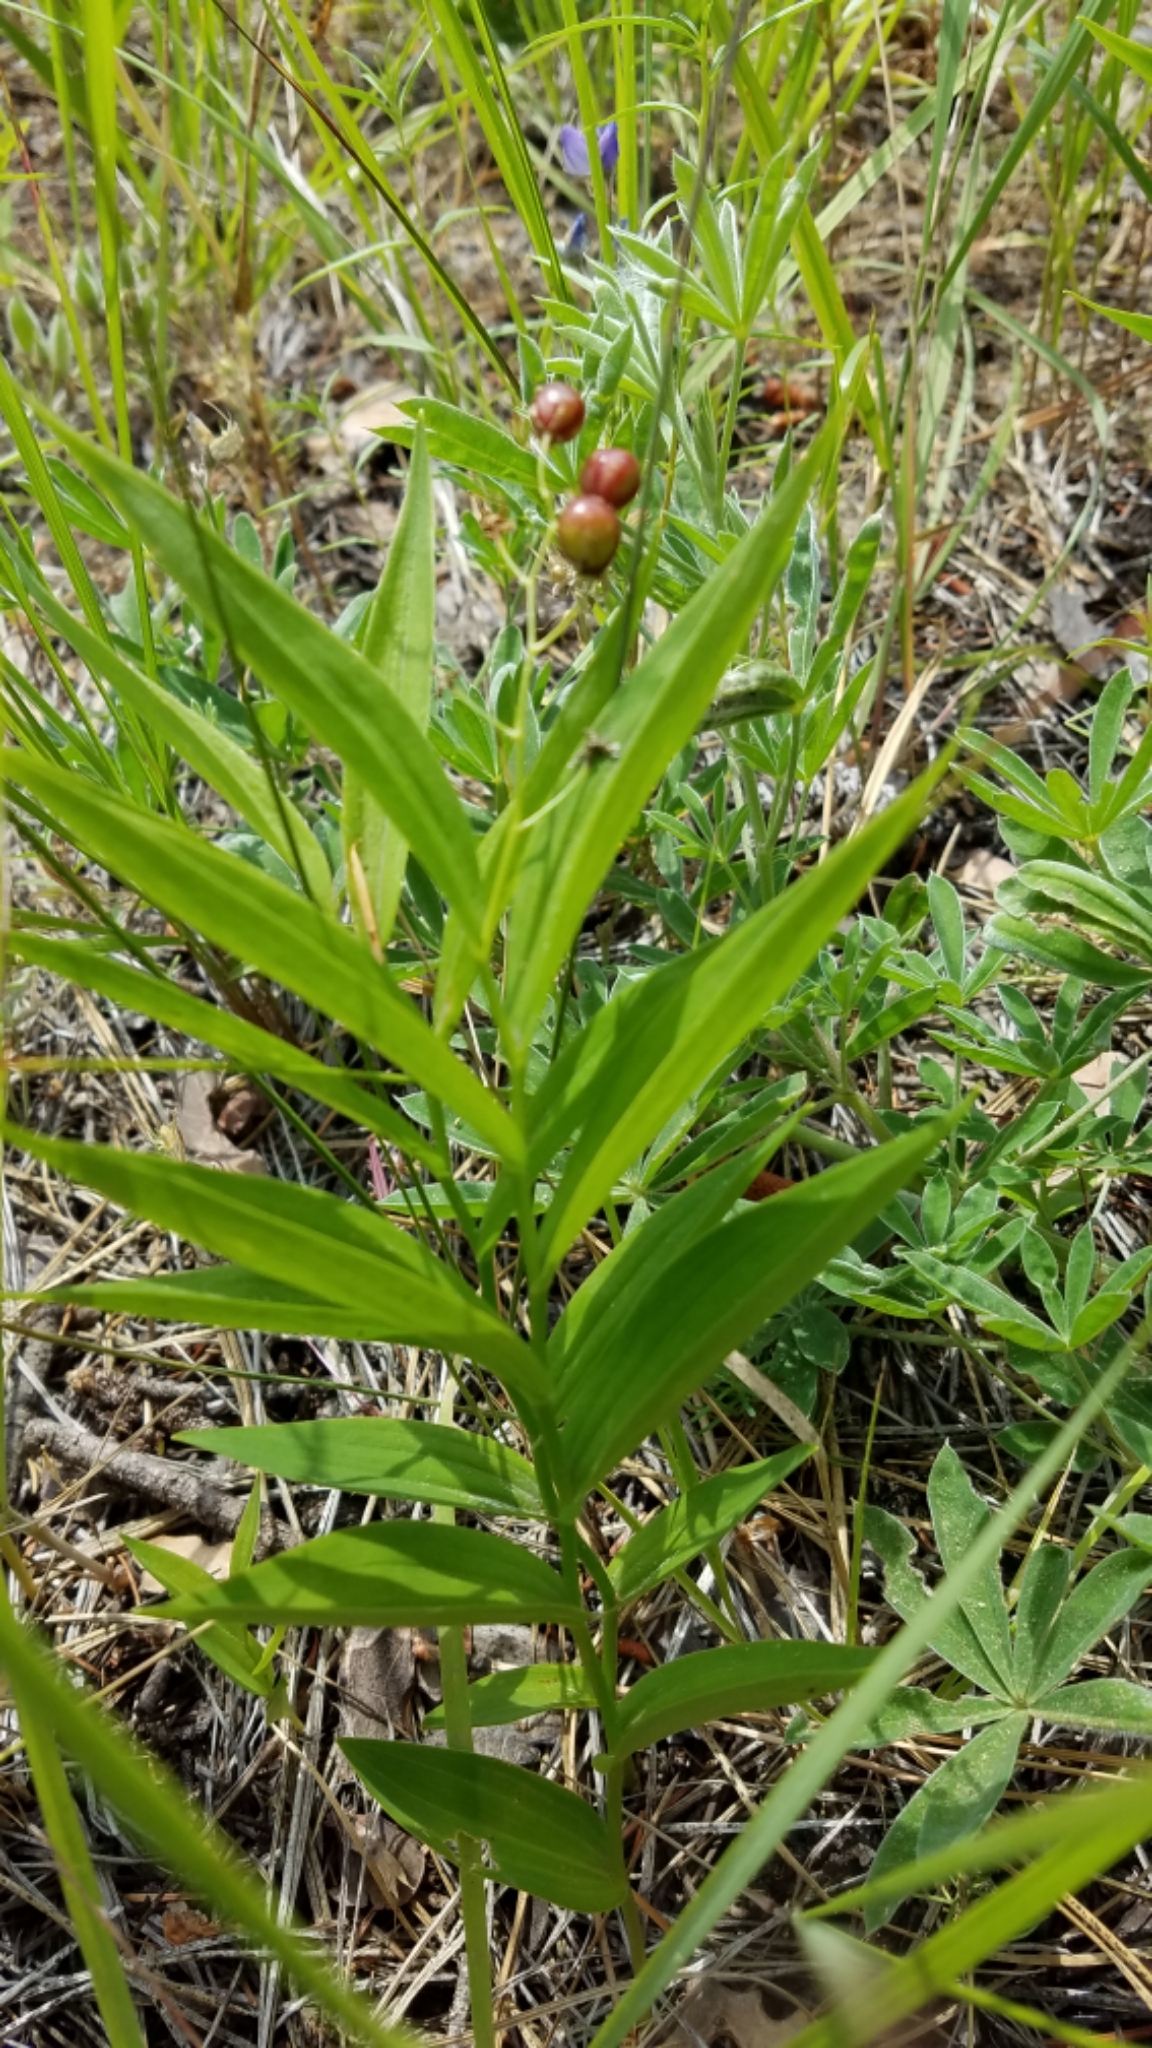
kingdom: Plantae
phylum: Tracheophyta
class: Liliopsida
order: Asparagales
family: Asparagaceae
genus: Maianthemum
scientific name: Maianthemum stellatum
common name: Little false solomon's seal
